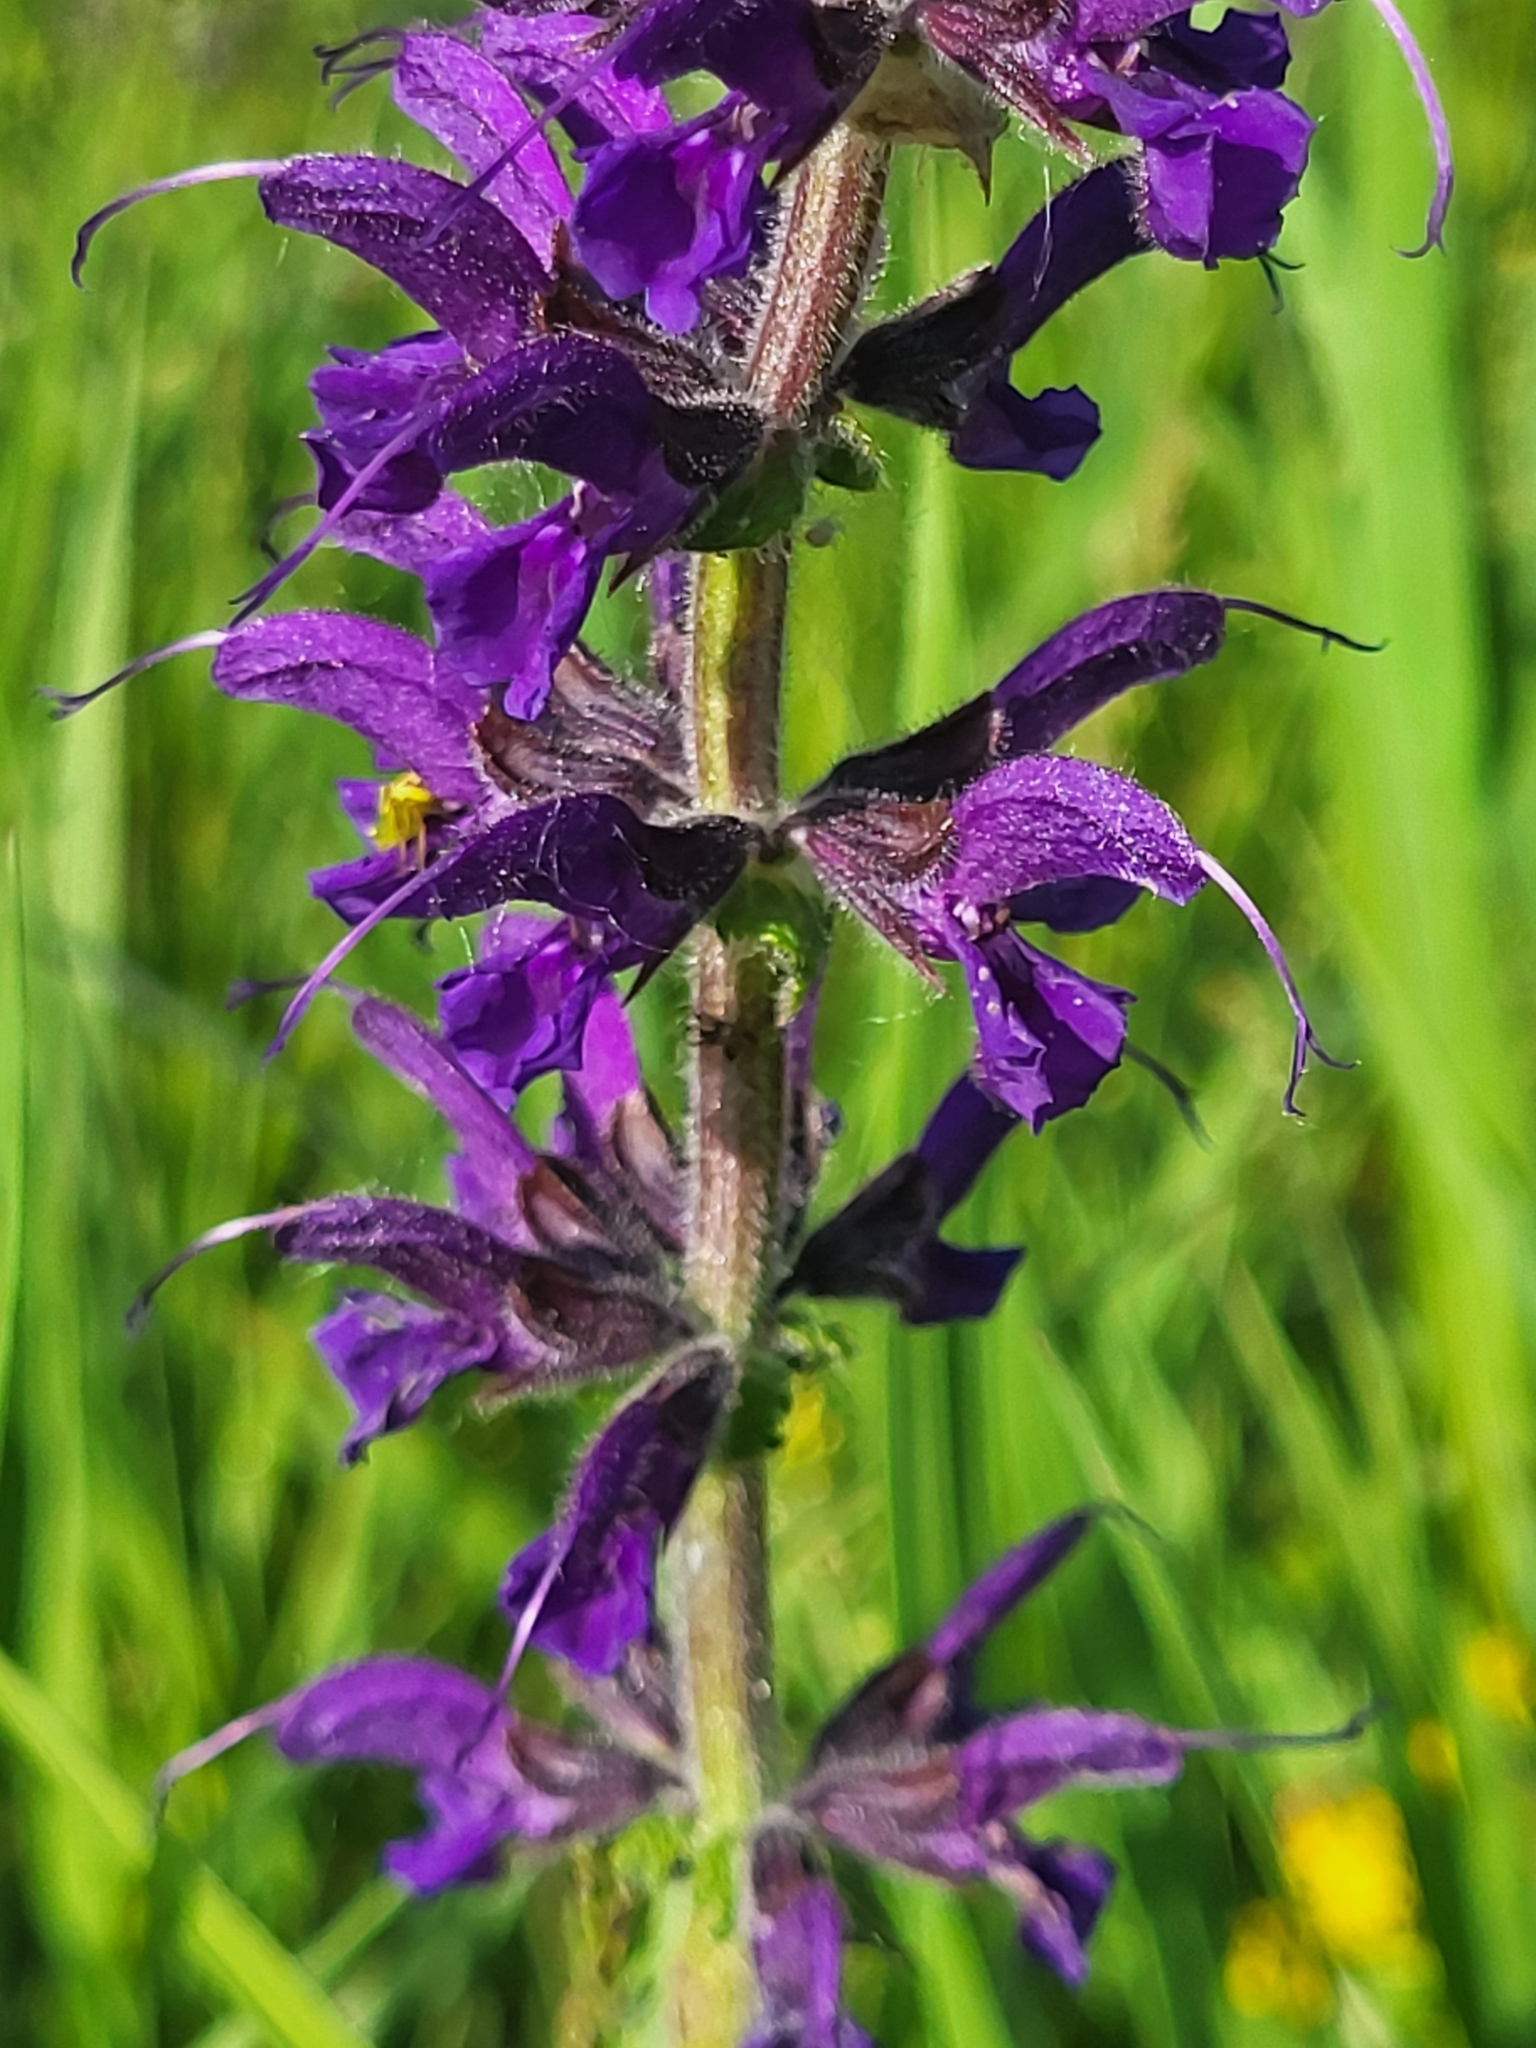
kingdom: Plantae
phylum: Tracheophyta
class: Magnoliopsida
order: Lamiales
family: Lamiaceae
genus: Salvia
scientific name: Salvia pratensis
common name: Meadow sage
